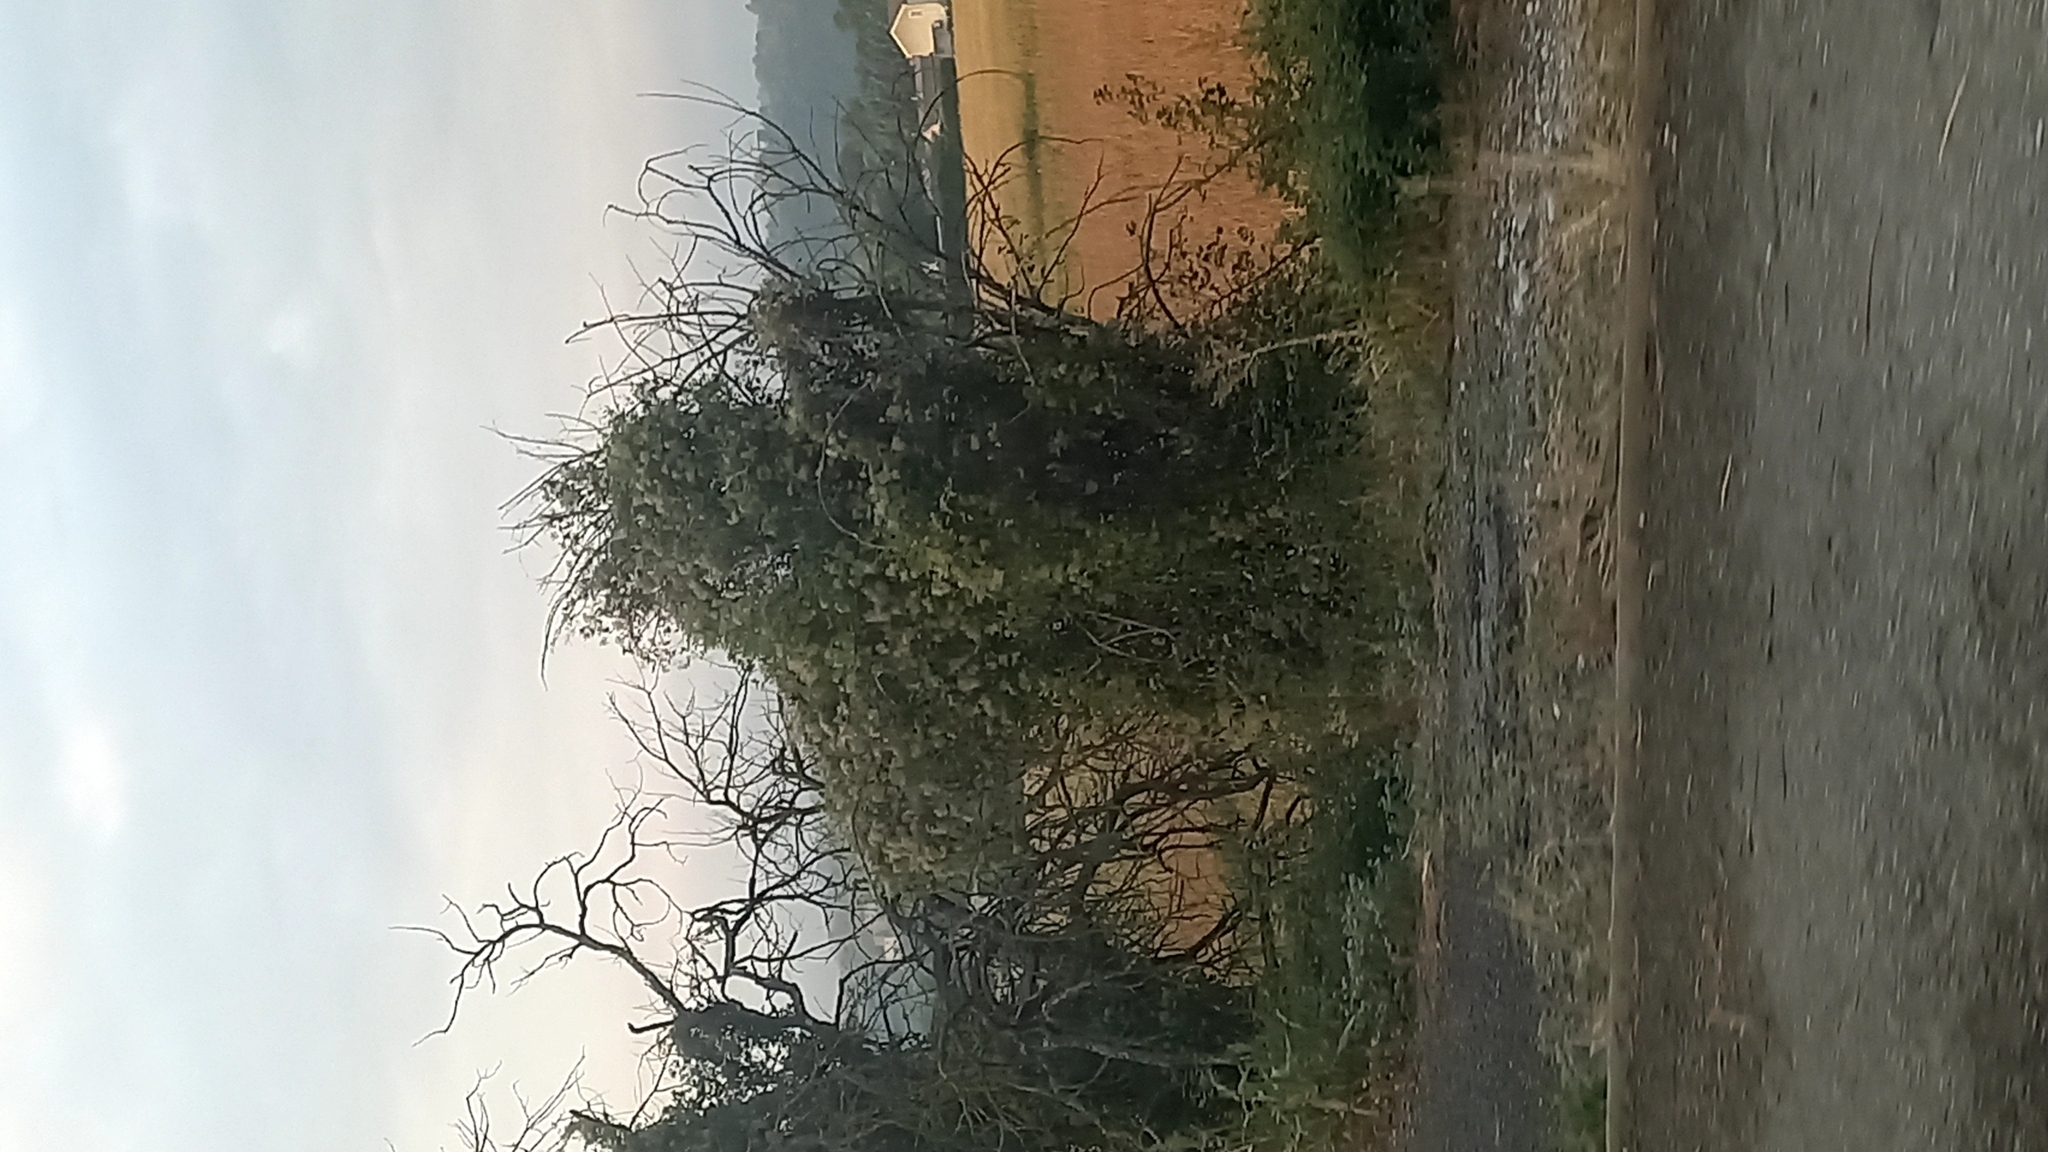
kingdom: Plantae
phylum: Tracheophyta
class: Magnoliopsida
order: Ranunculales
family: Ranunculaceae
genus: Clematis
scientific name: Clematis vitalba
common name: Evergreen clematis
